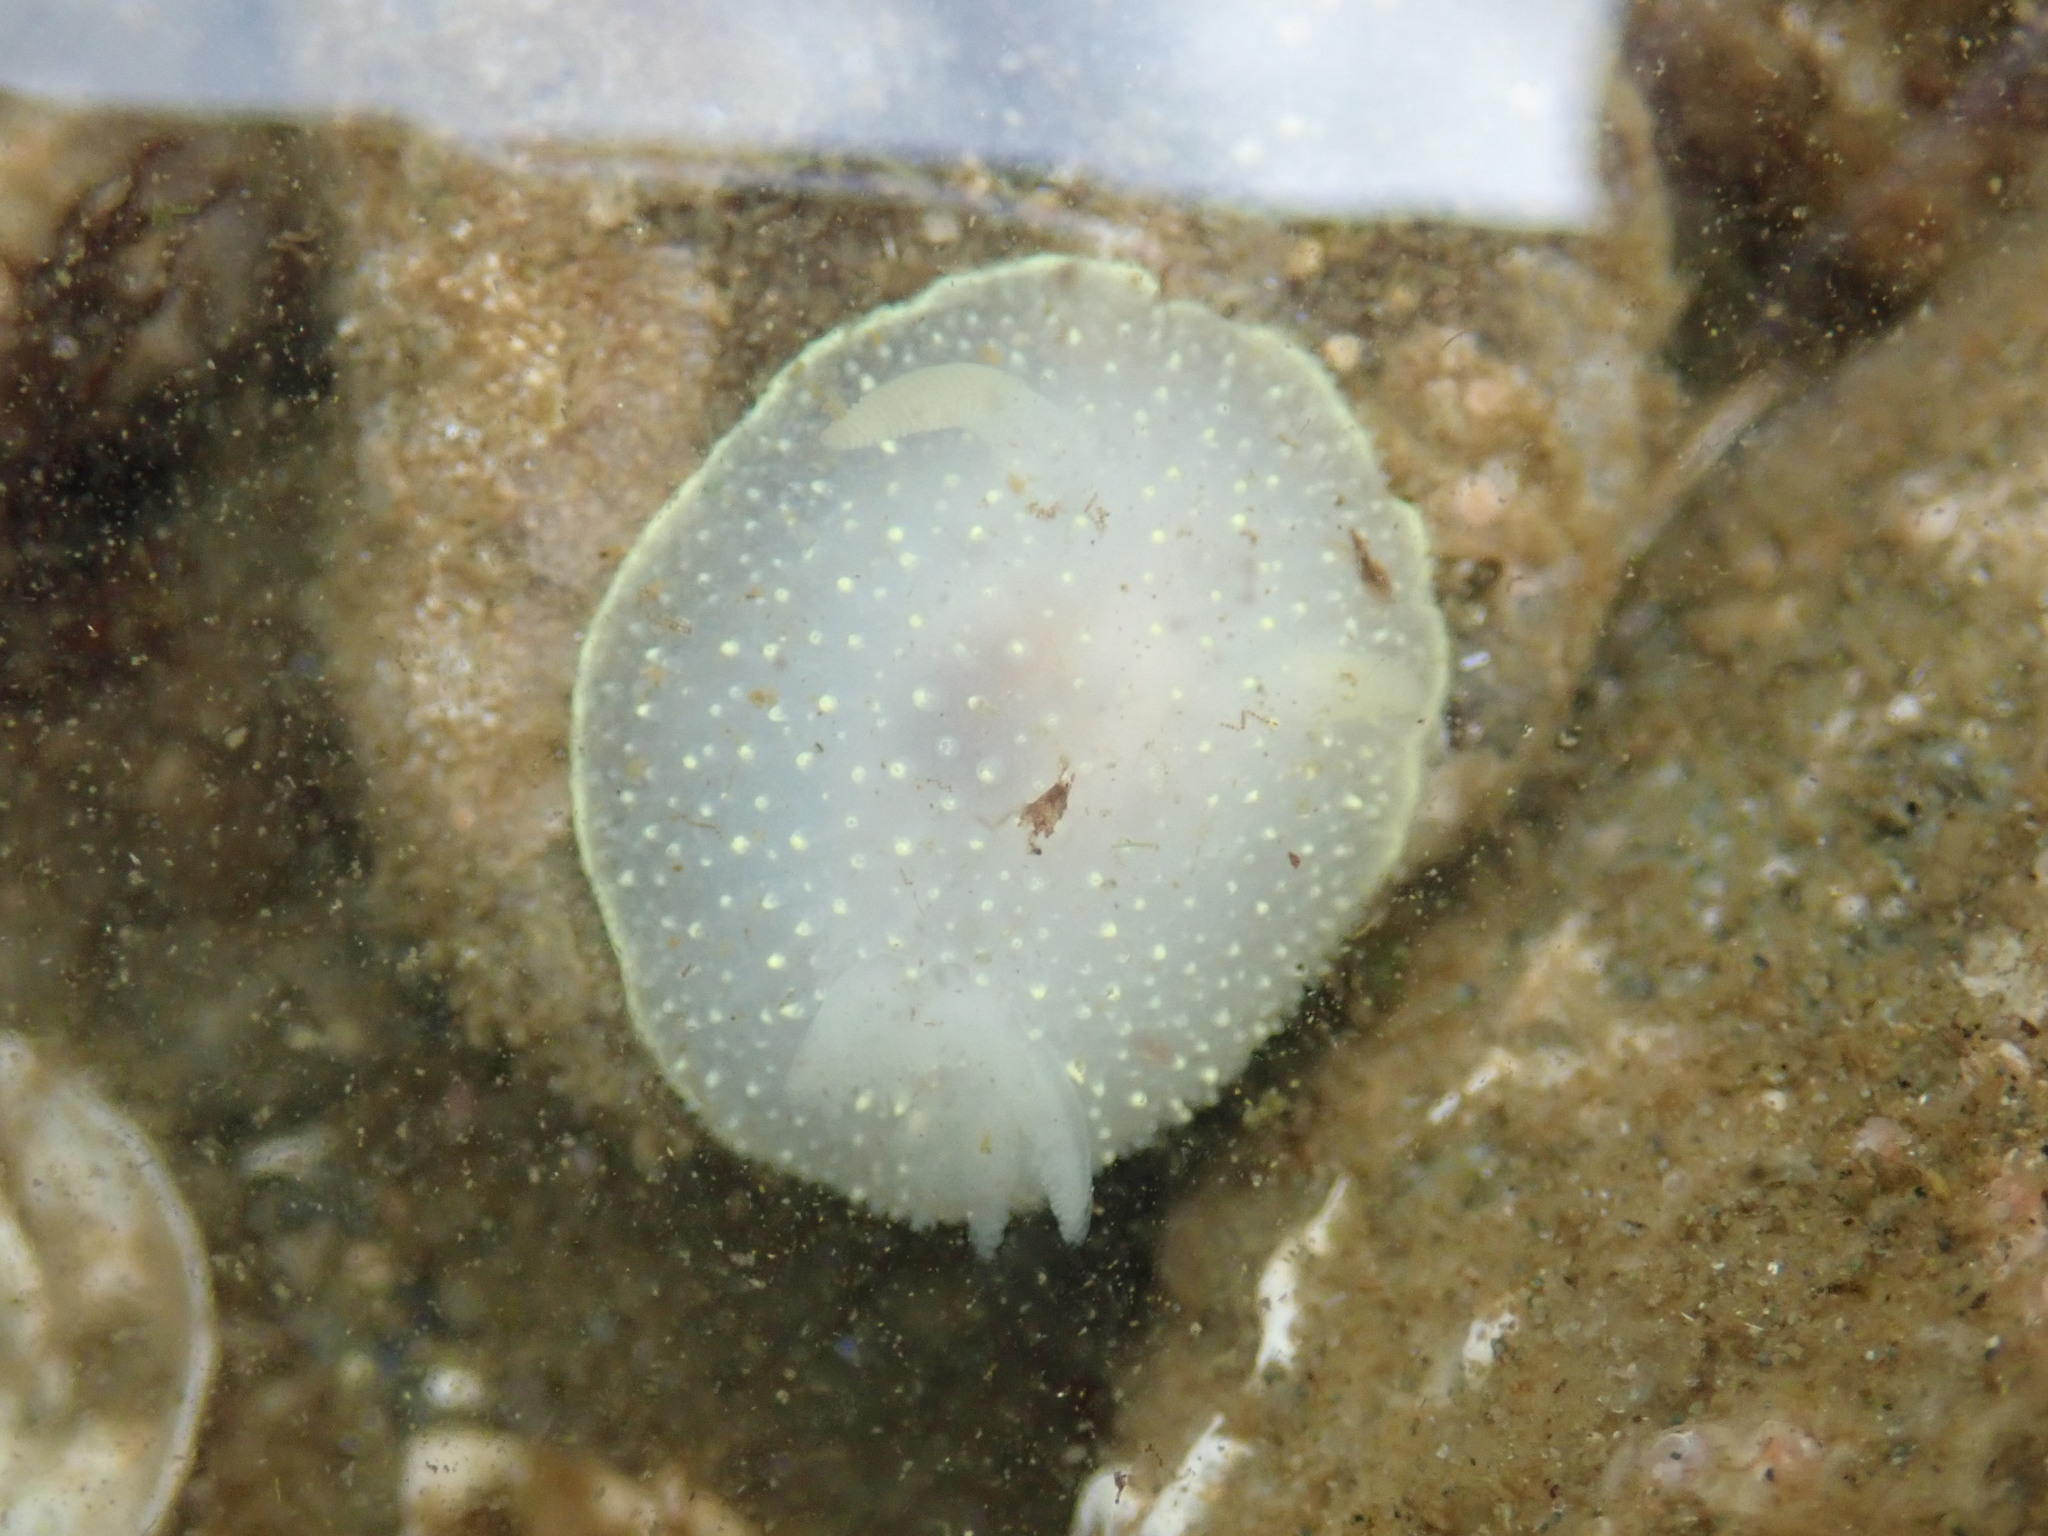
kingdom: Animalia
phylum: Mollusca
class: Gastropoda
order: Nudibranchia
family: Onchidorididae
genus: Acanthodoris
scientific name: Acanthodoris hudsoni
